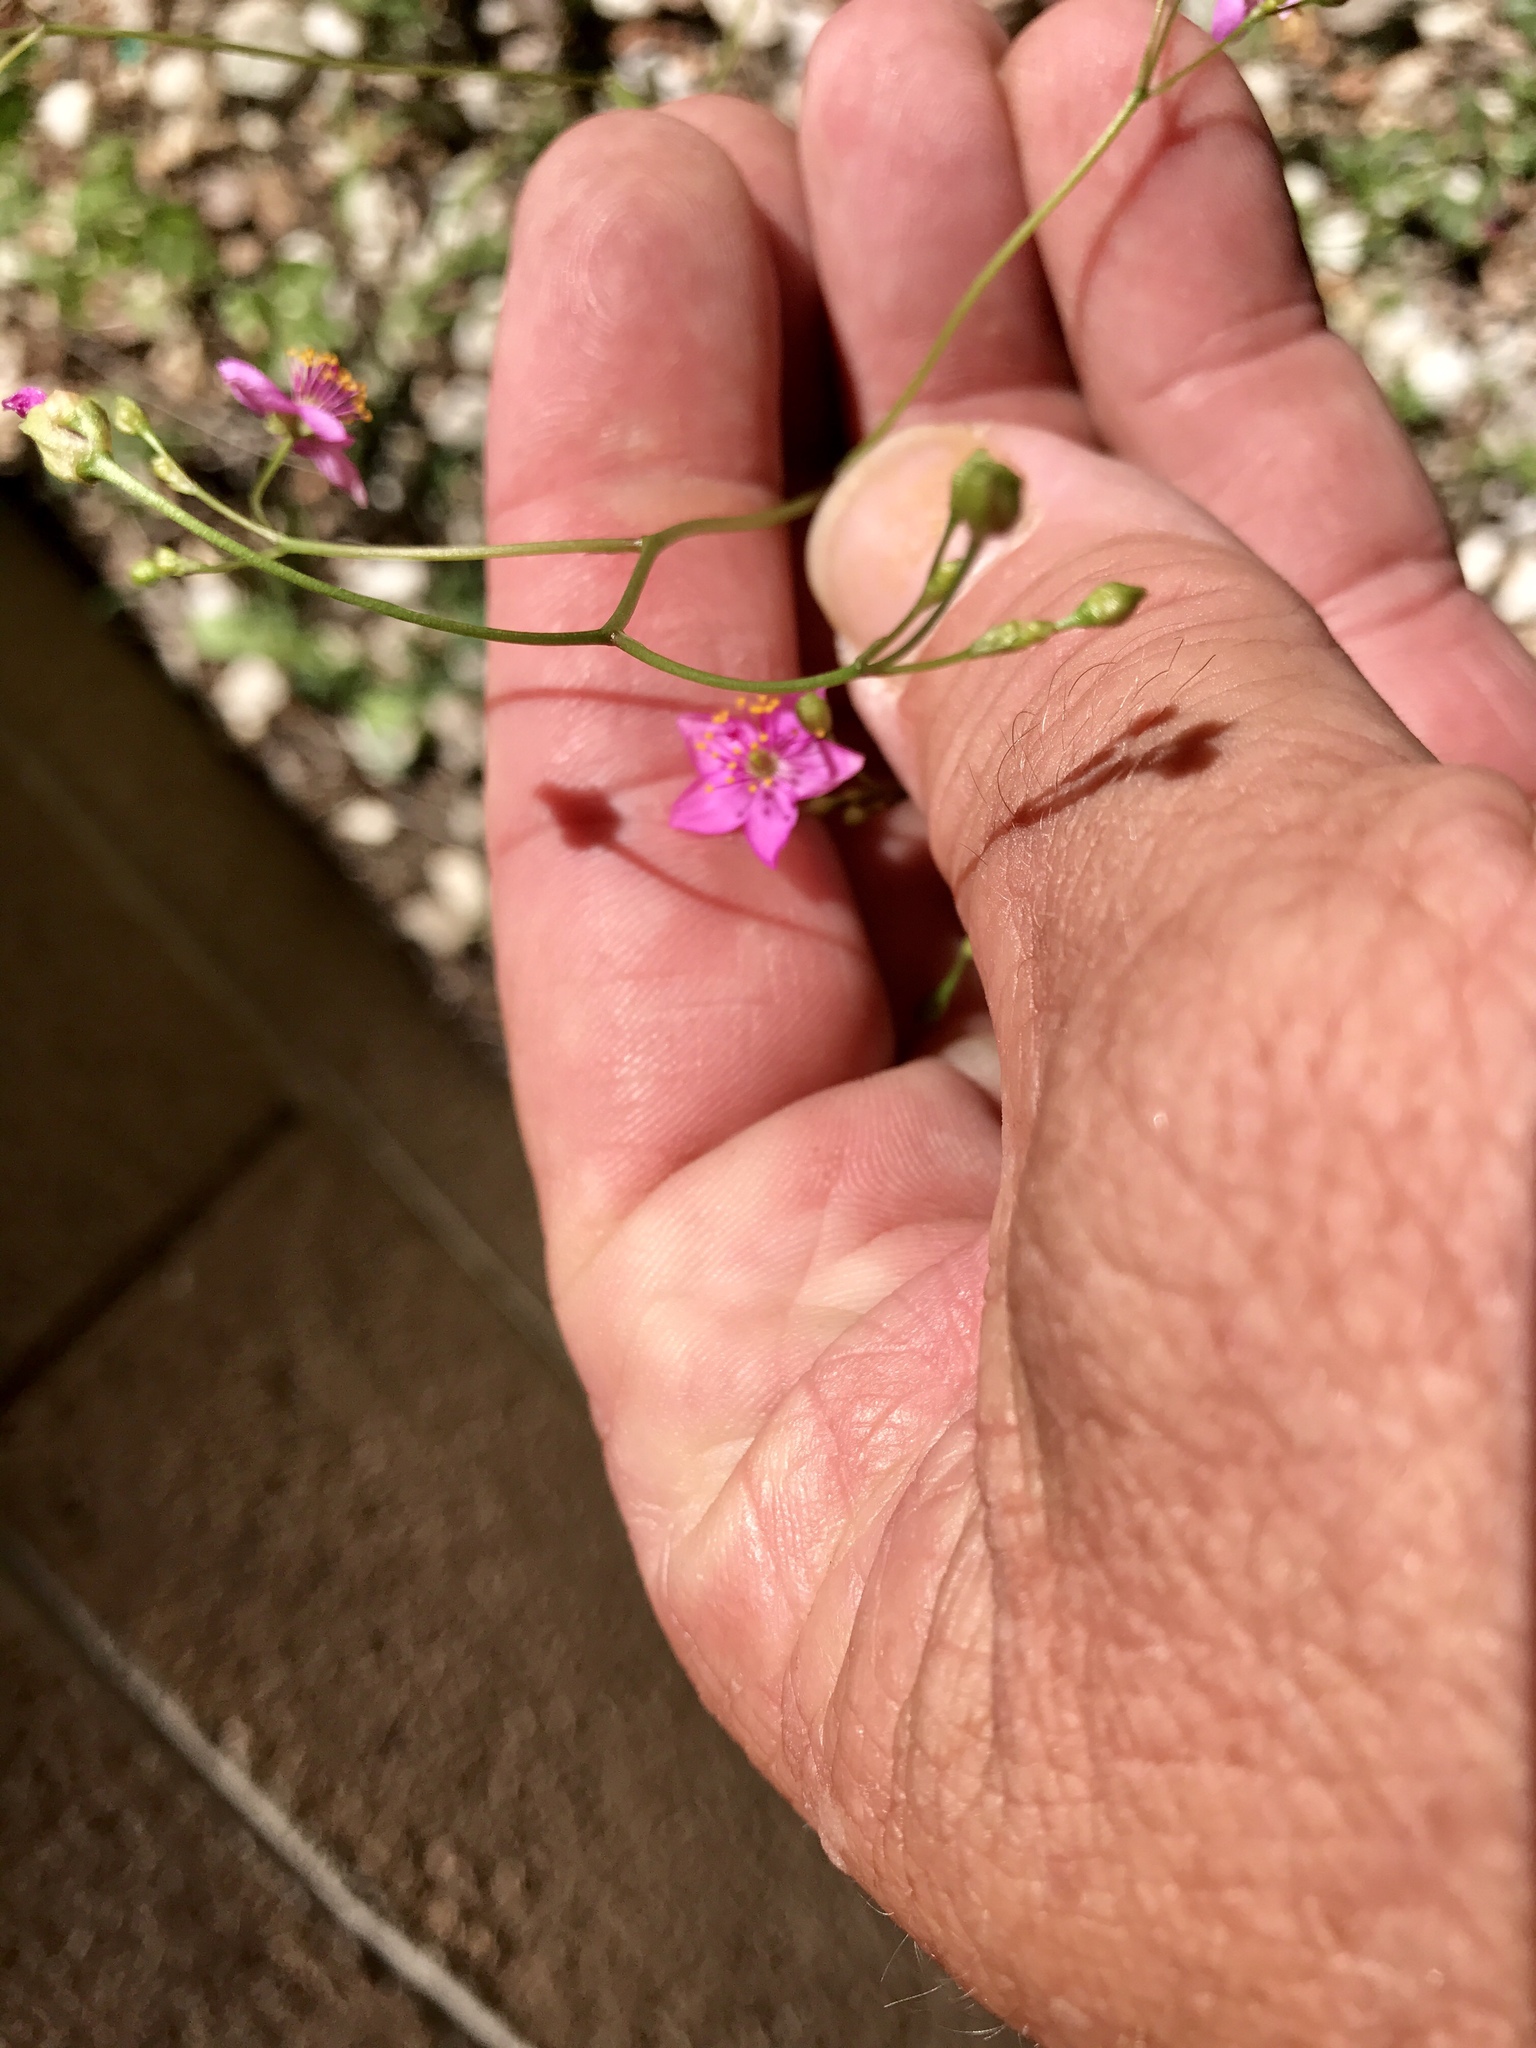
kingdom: Plantae
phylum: Tracheophyta
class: Magnoliopsida
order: Caryophyllales
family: Talinaceae
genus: Talinum
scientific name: Talinum paniculatum
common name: Jewels of opar
